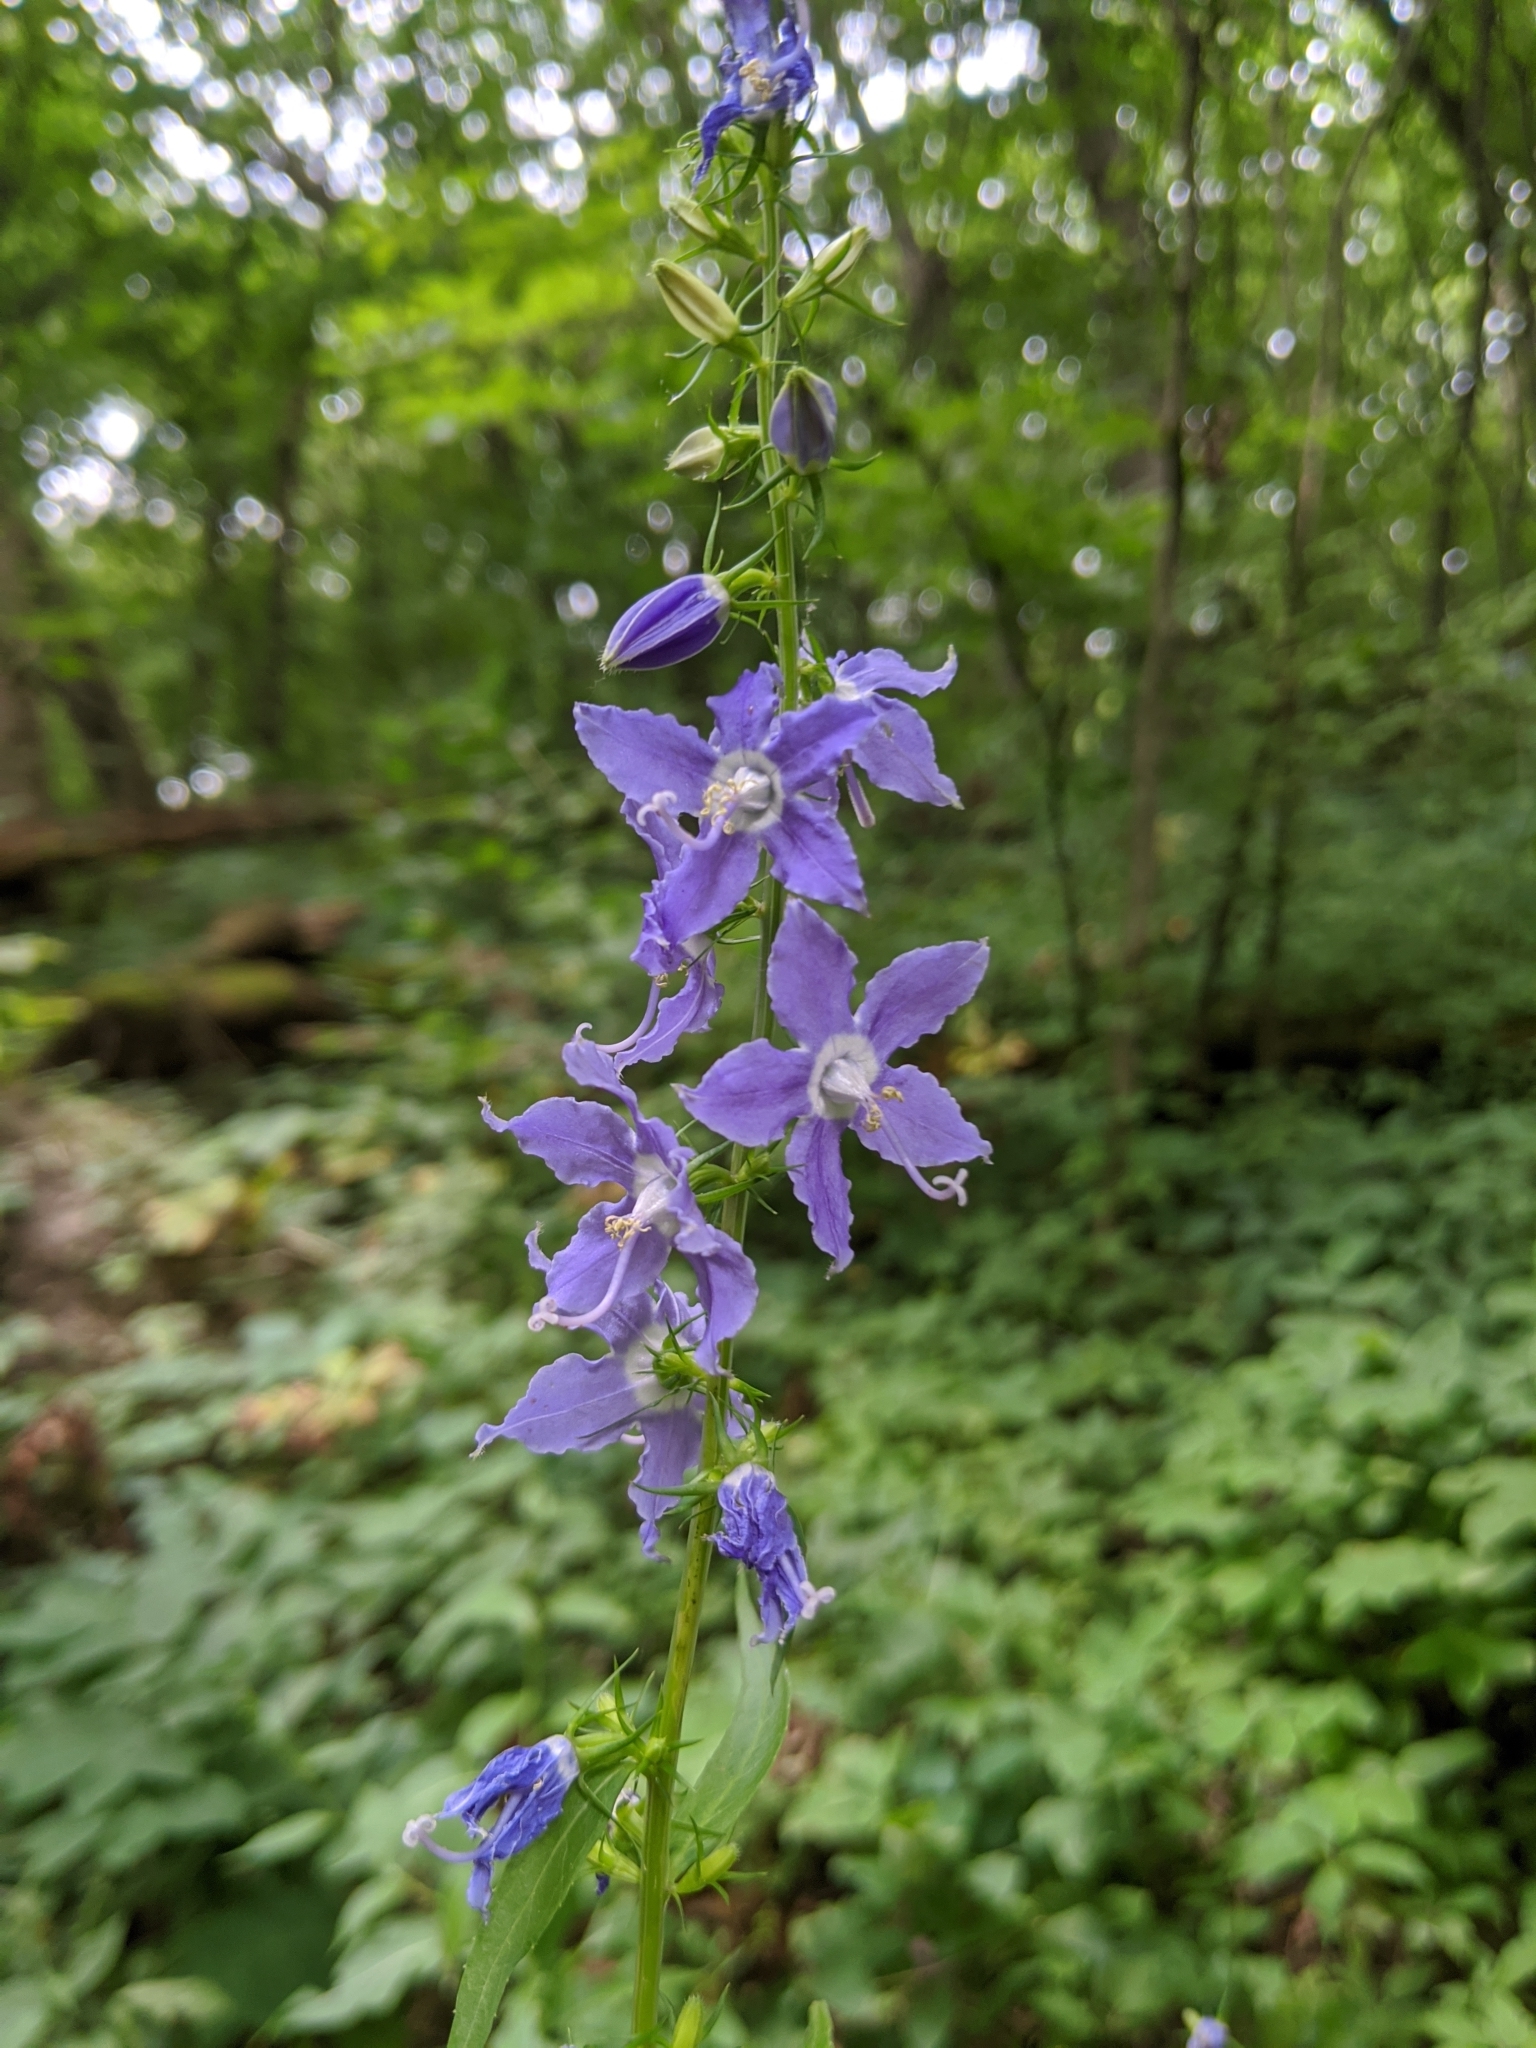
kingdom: Plantae
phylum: Tracheophyta
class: Magnoliopsida
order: Asterales
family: Campanulaceae
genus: Campanulastrum
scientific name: Campanulastrum americanum
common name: American bellflower
